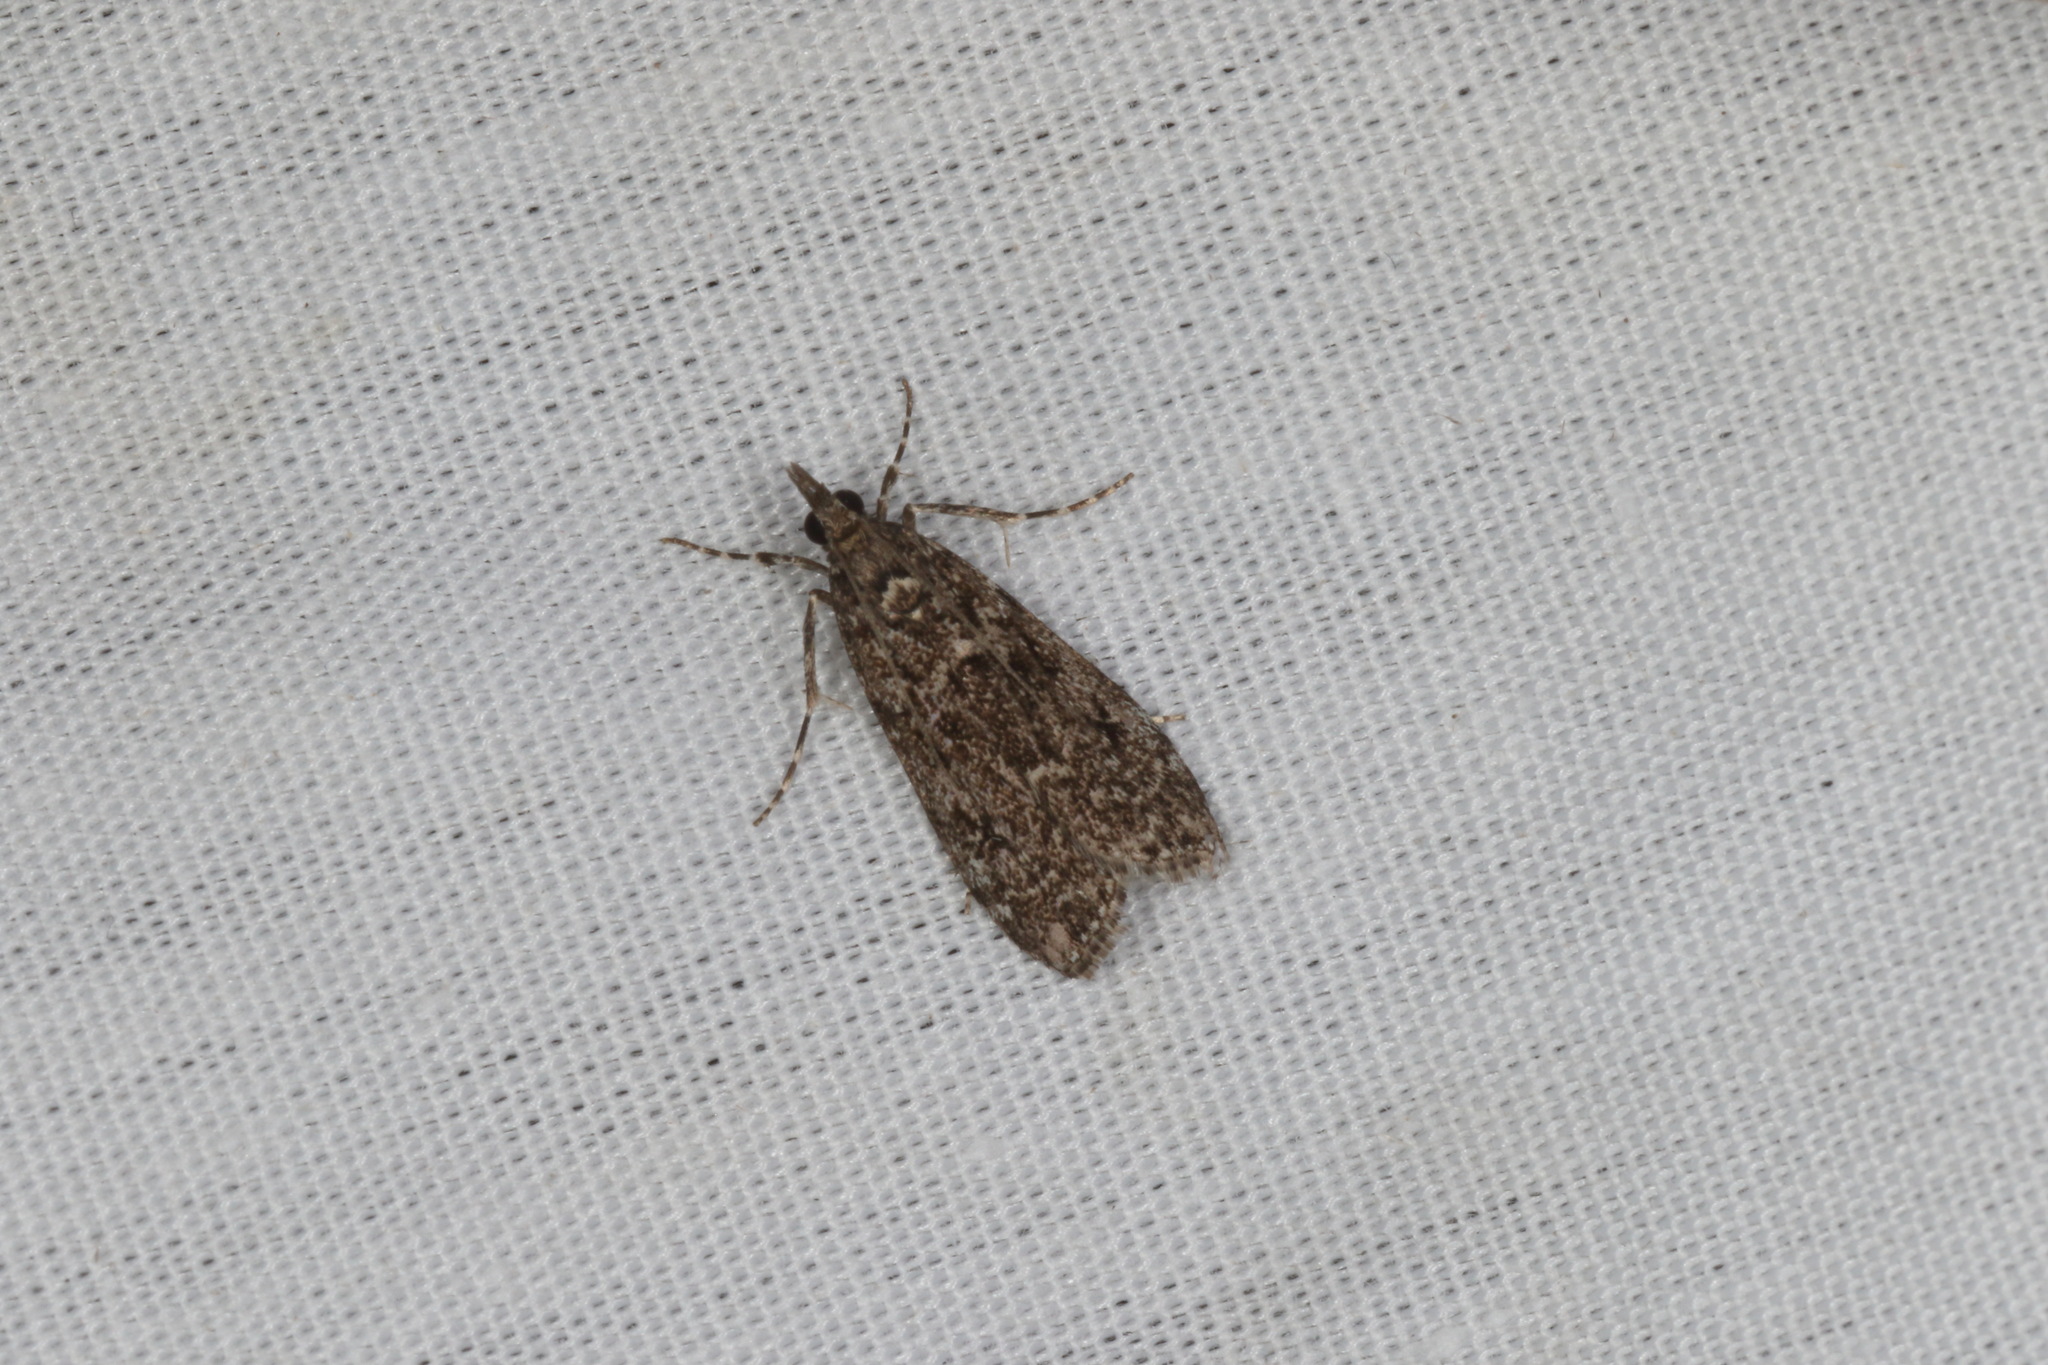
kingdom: Animalia
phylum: Arthropoda
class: Insecta
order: Lepidoptera
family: Crambidae
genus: Eudonia
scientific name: Eudonia philerga
